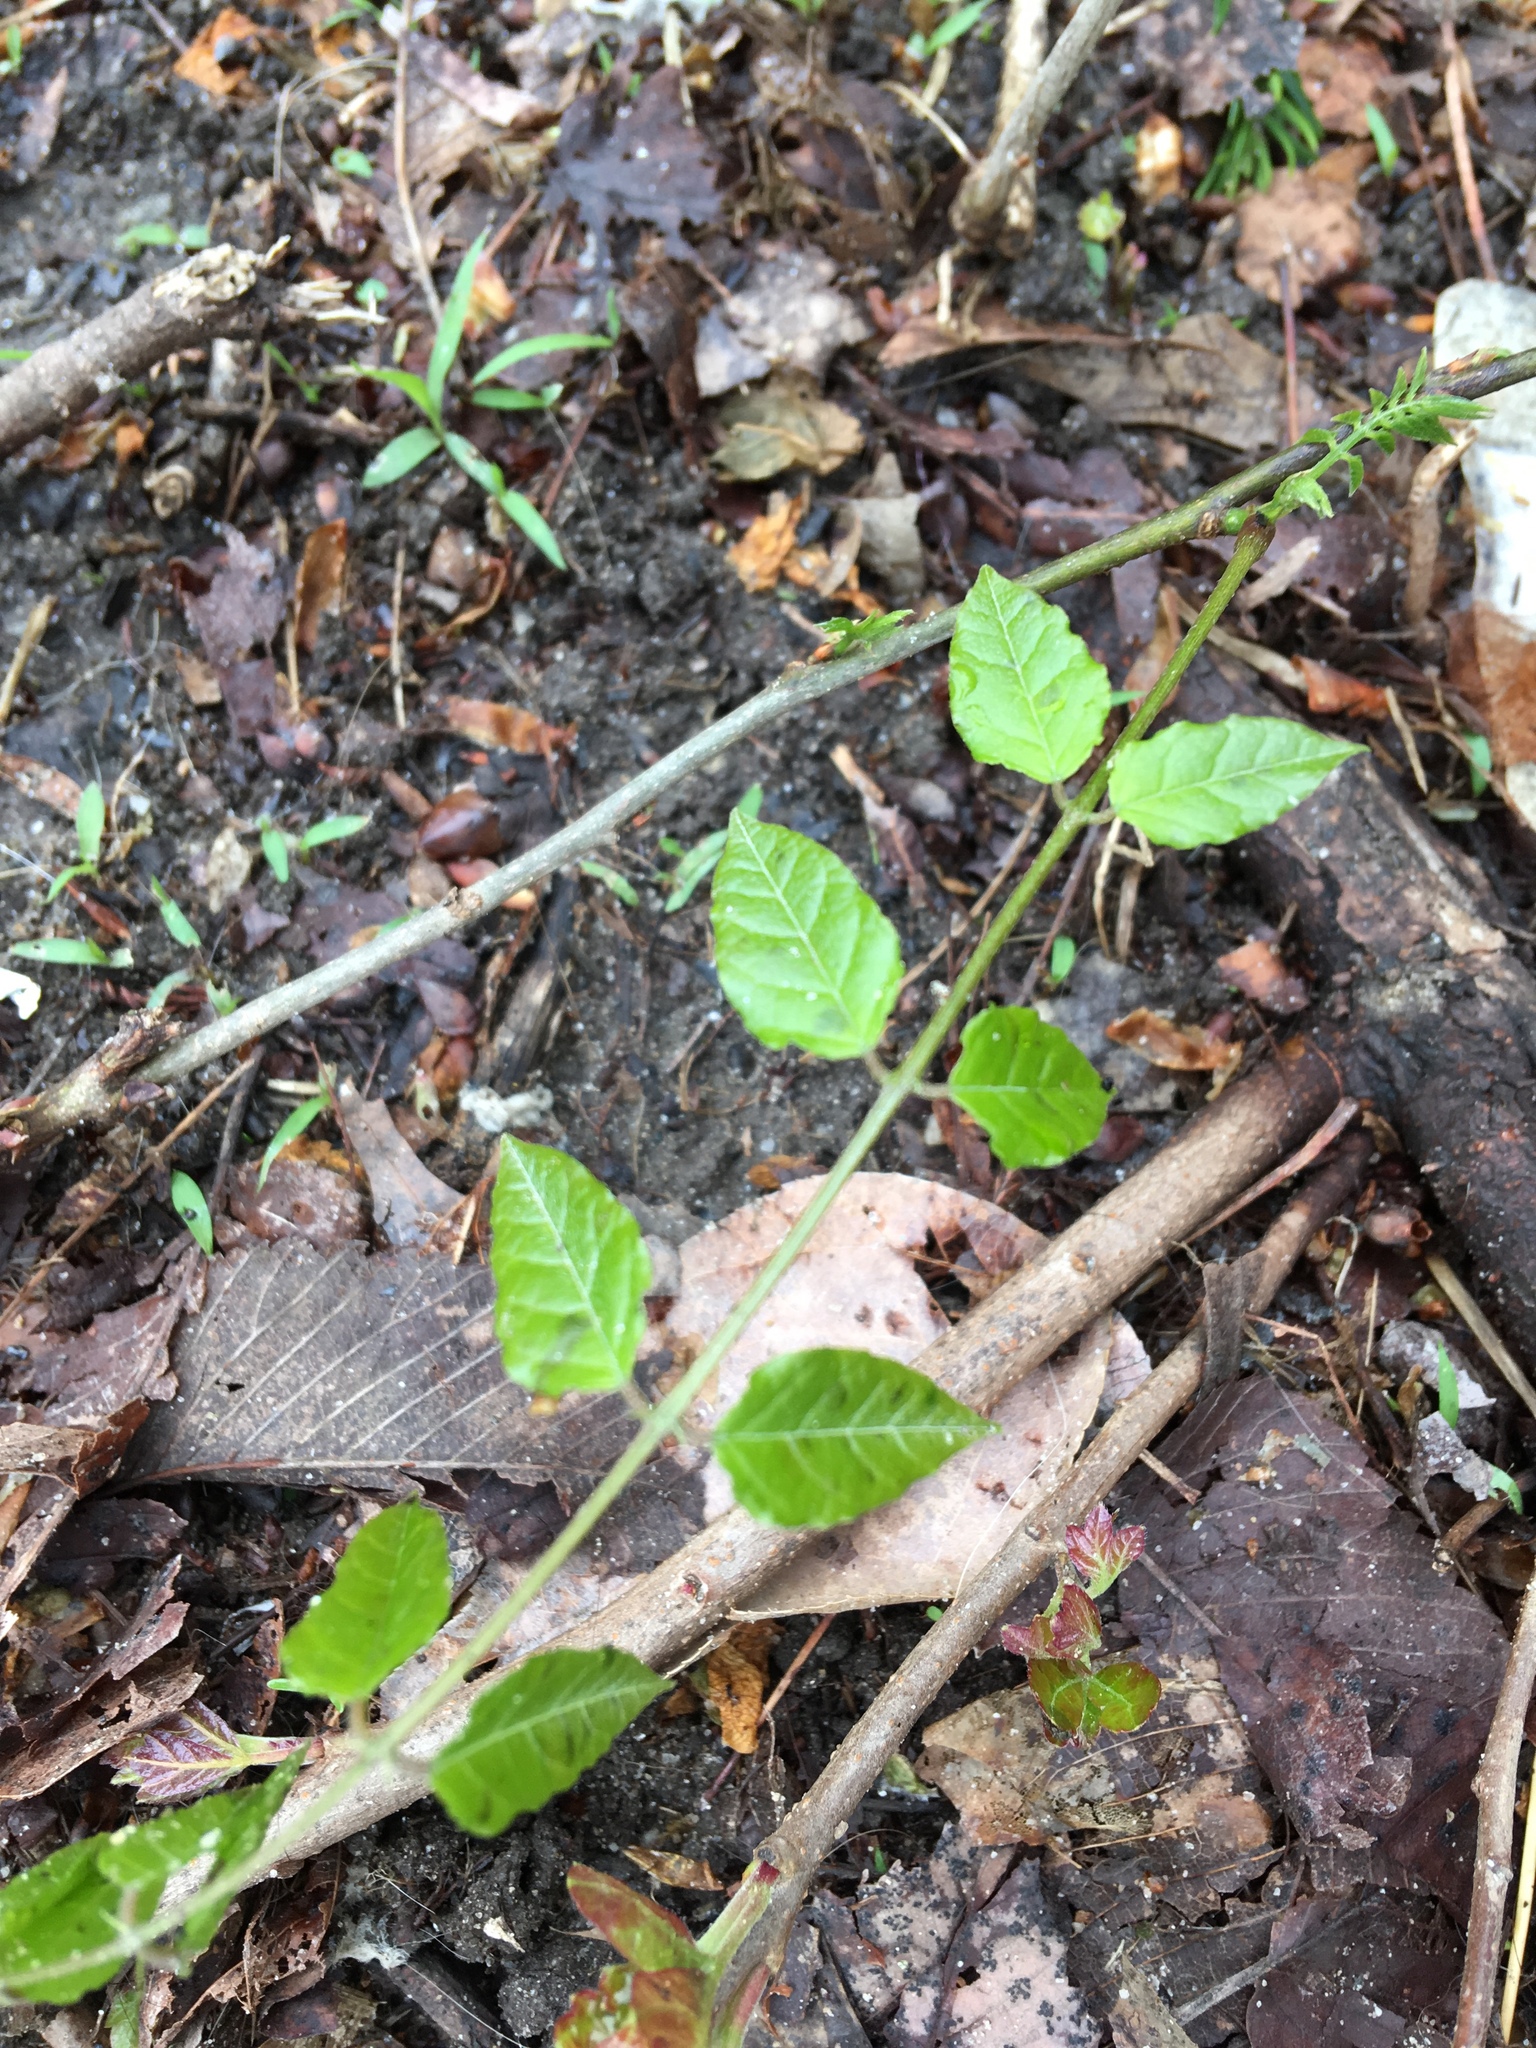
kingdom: Plantae
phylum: Tracheophyta
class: Magnoliopsida
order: Celastrales
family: Celastraceae
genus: Euonymus
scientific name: Euonymus fortunei
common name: Climbing euonymus
